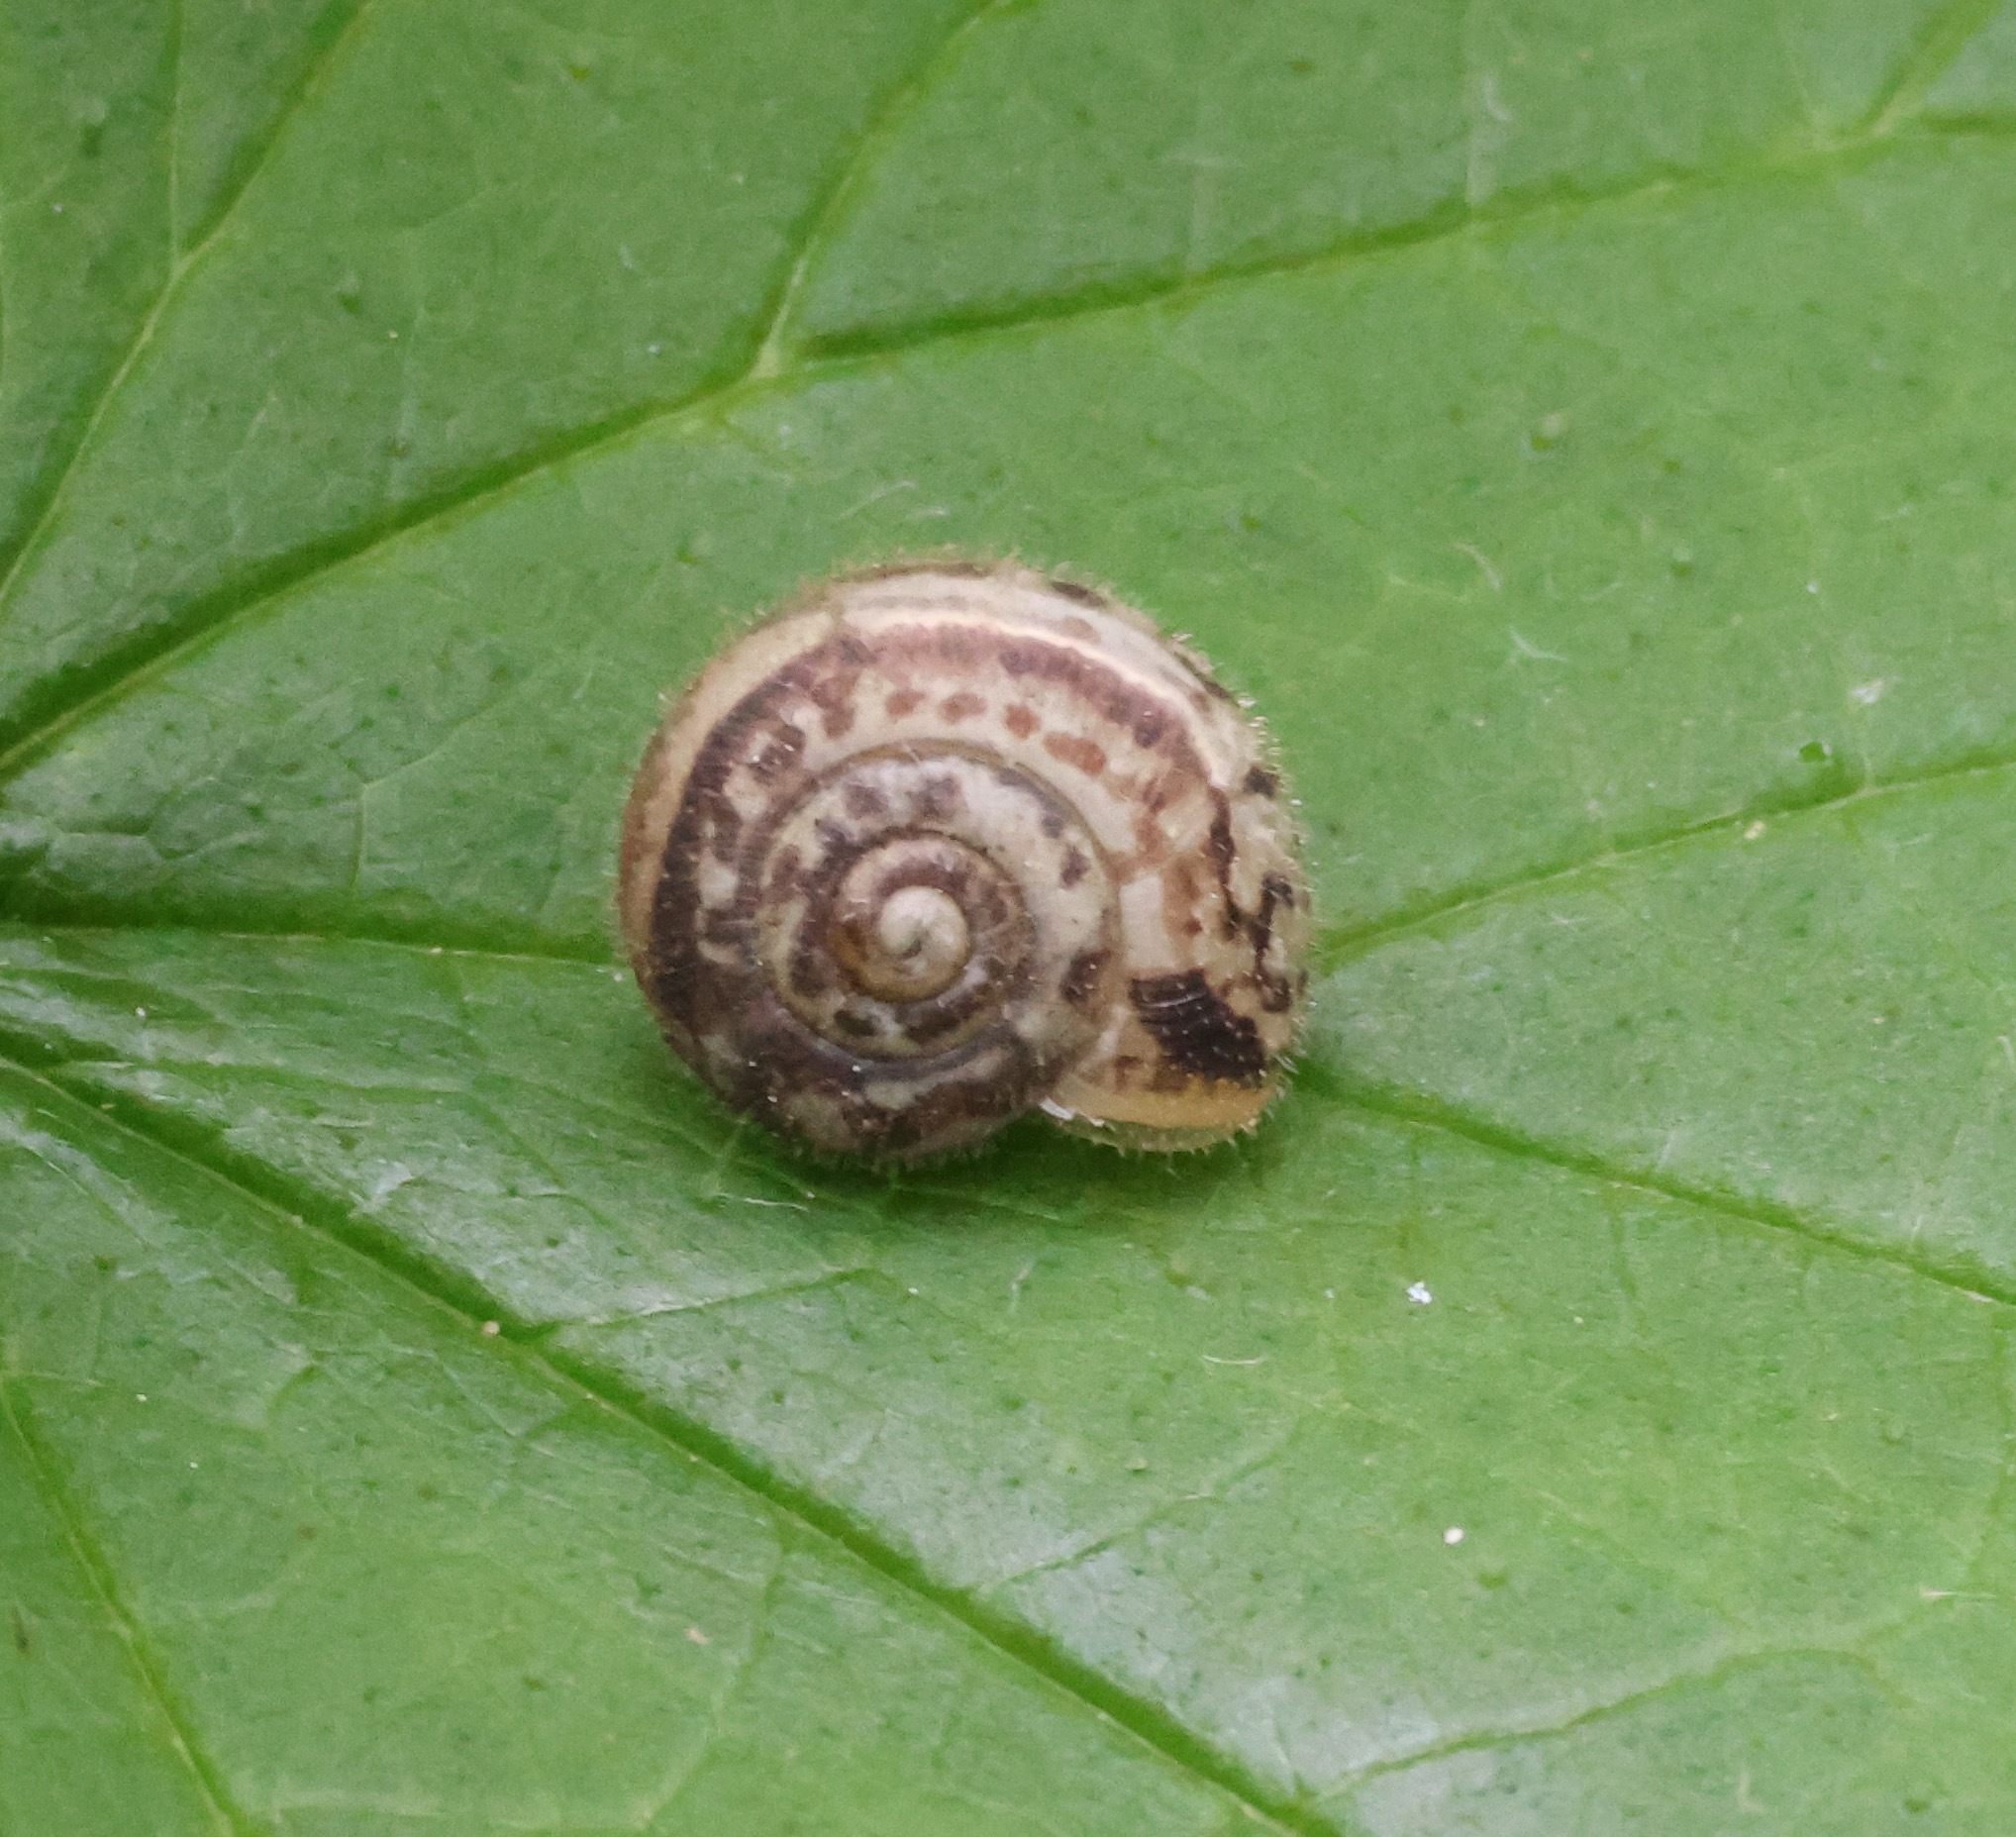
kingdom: Animalia
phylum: Mollusca
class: Gastropoda
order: Stylommatophora
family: Hygromiidae
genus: Monacha
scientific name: Monacha cantiana
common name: Kentish snail
